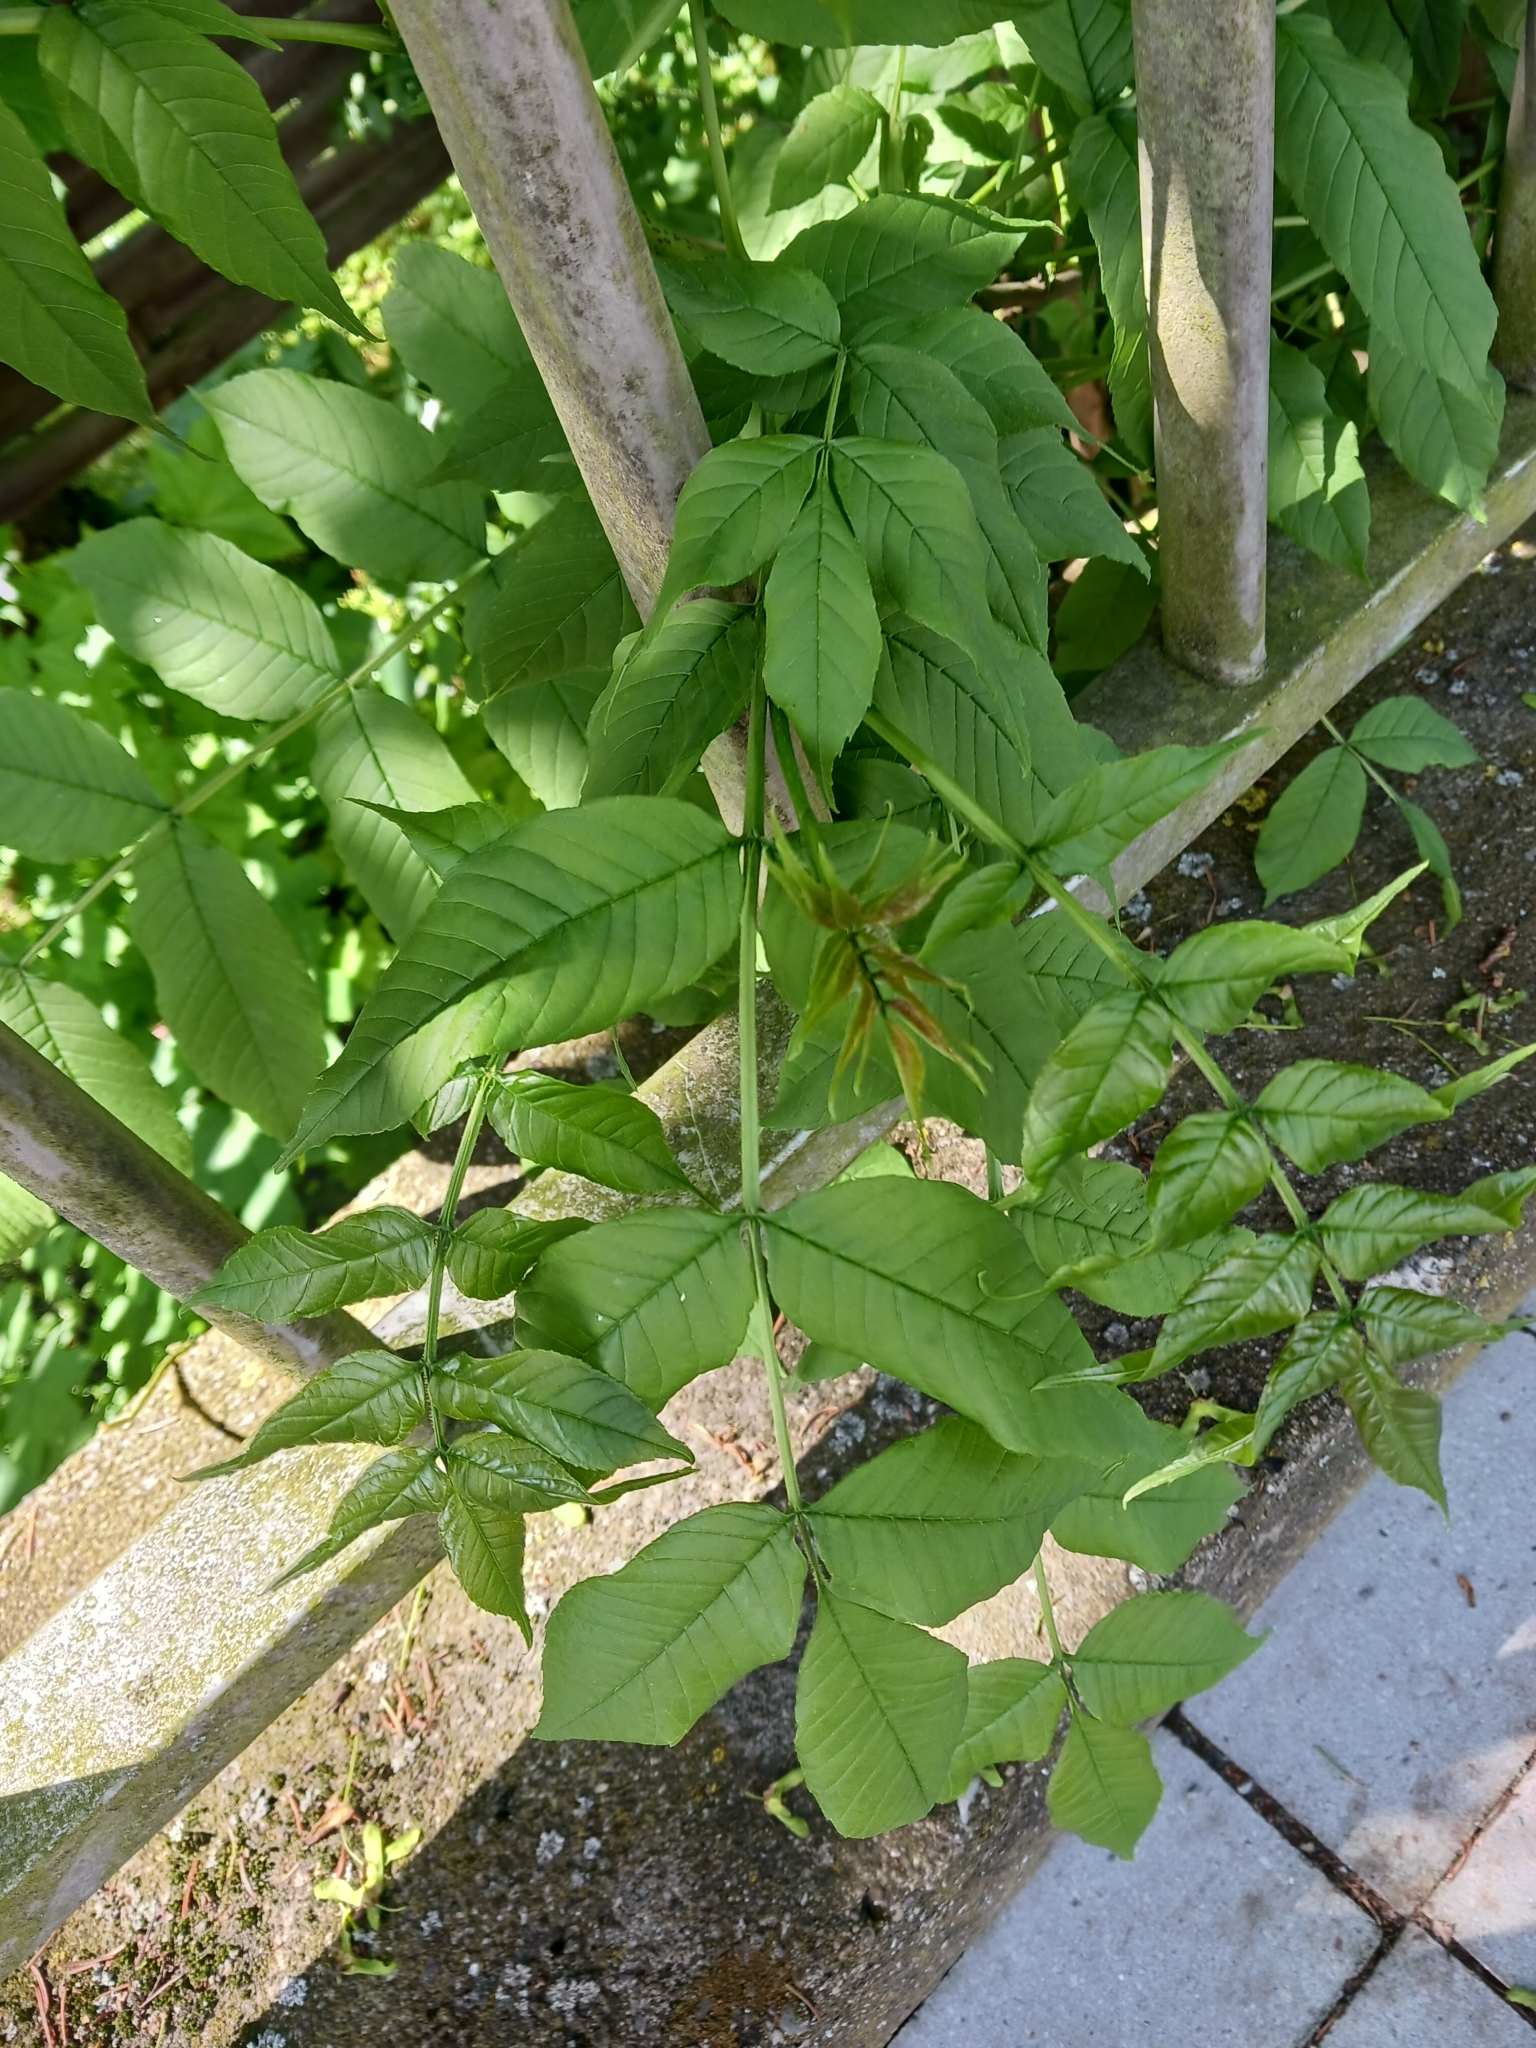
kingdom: Plantae
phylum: Tracheophyta
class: Magnoliopsida
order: Lamiales
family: Oleaceae
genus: Fraxinus
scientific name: Fraxinus excelsior
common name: European ash
